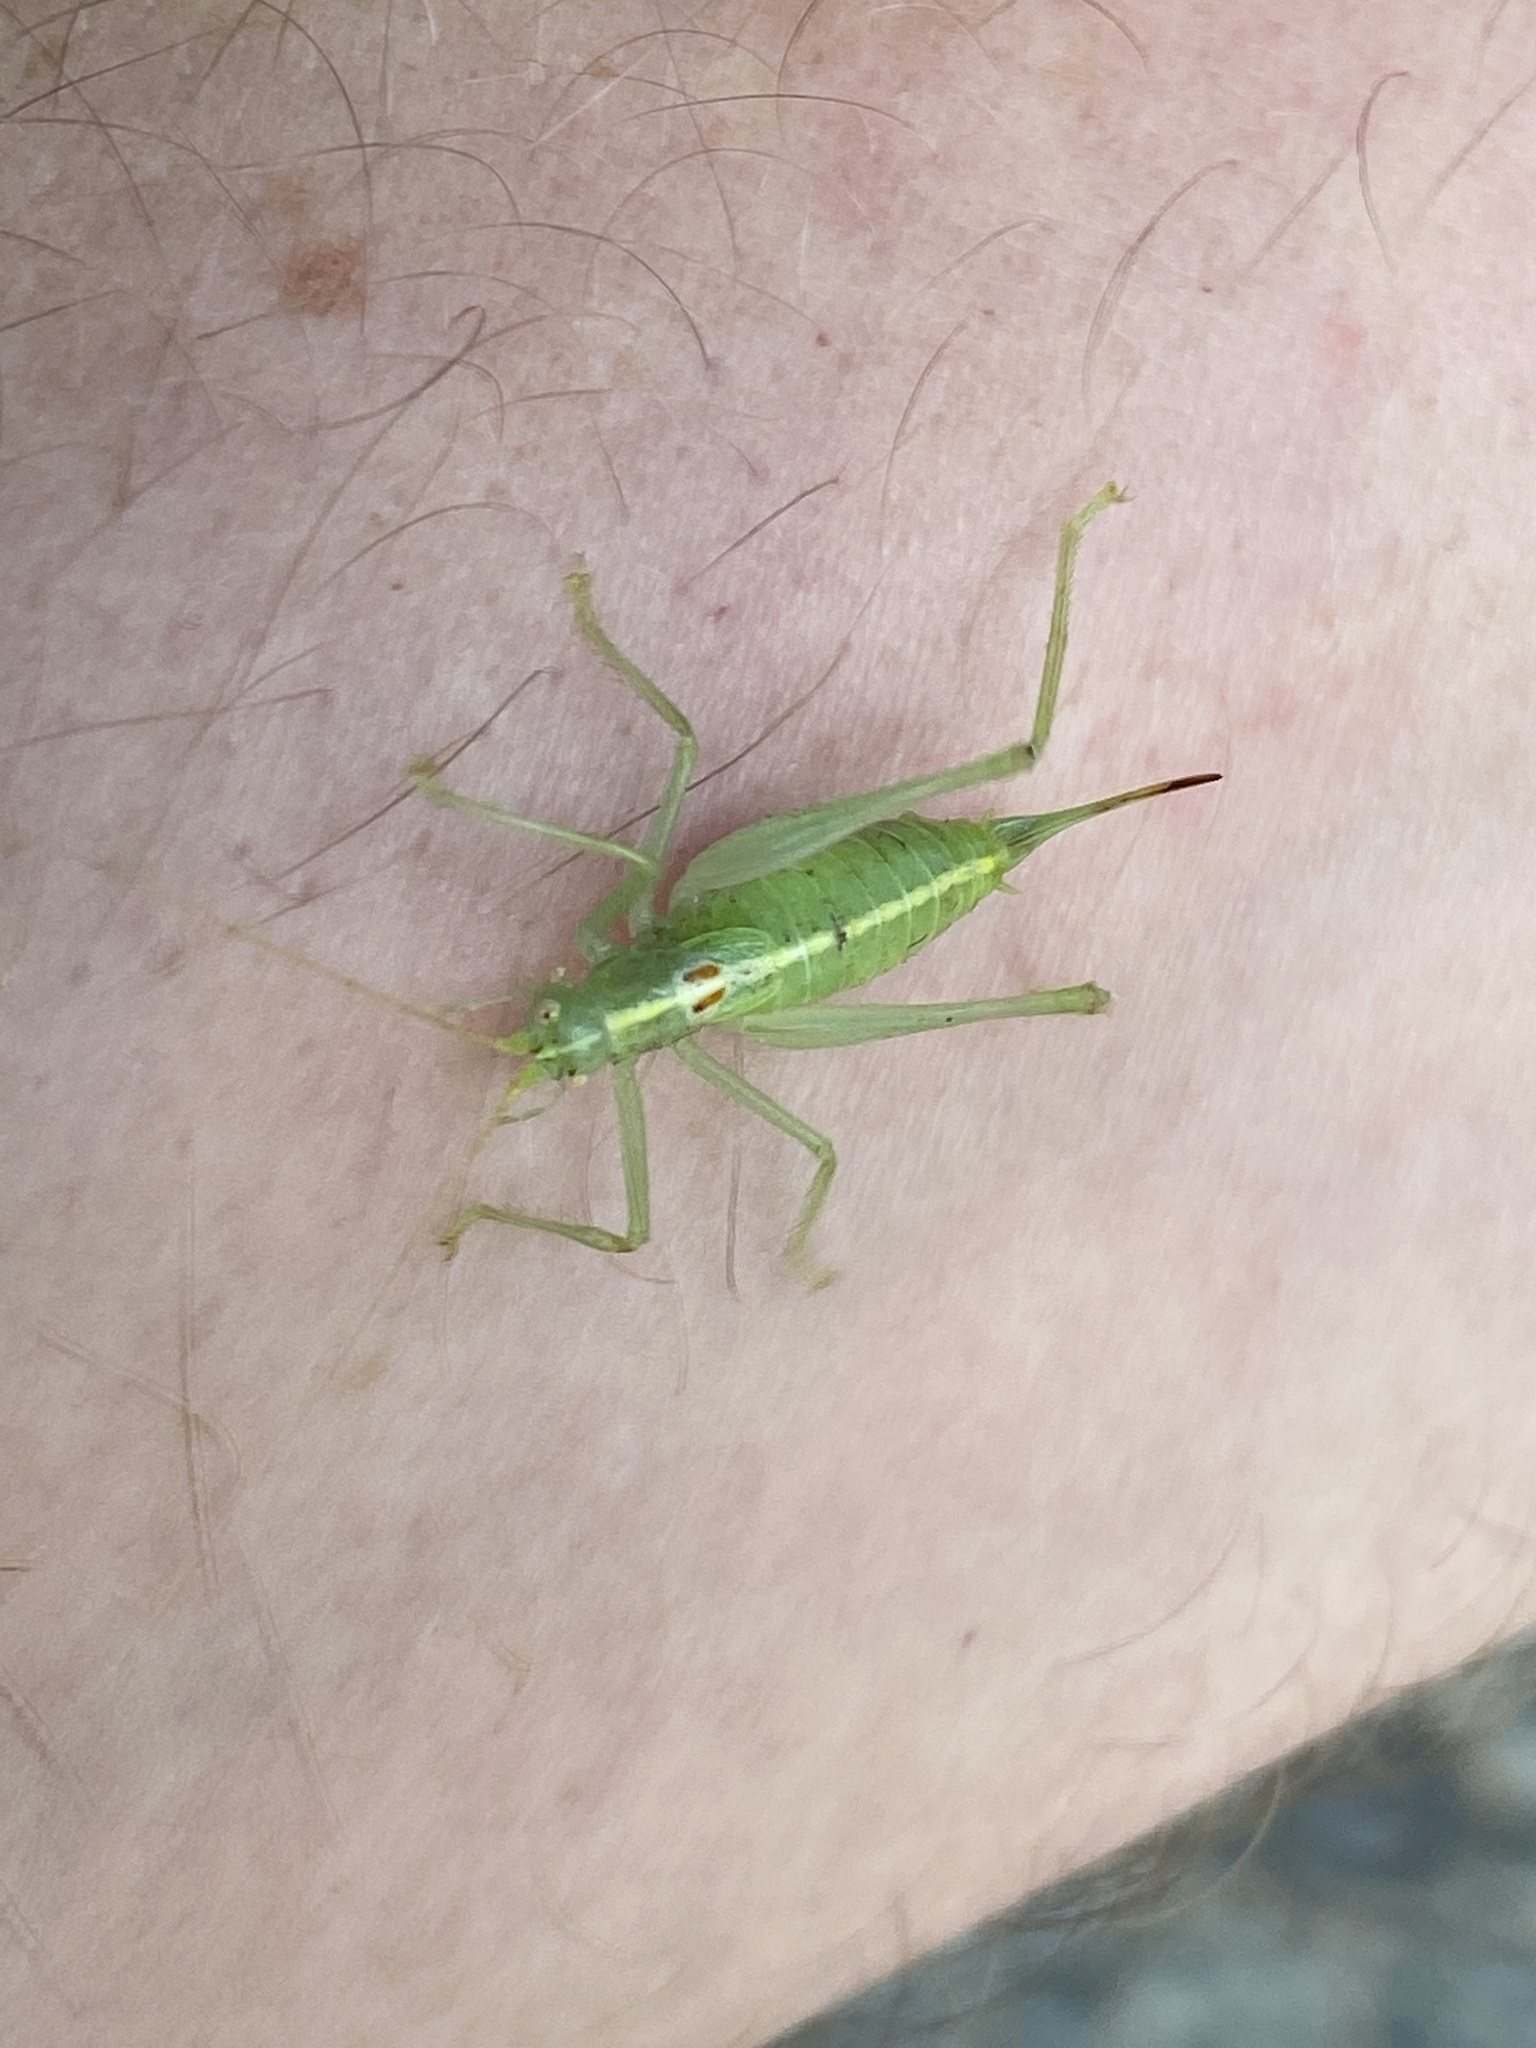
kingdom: Animalia
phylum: Arthropoda
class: Insecta
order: Orthoptera
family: Tettigoniidae
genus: Meconema
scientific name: Meconema meridionale
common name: Southern oak bush-cricket
